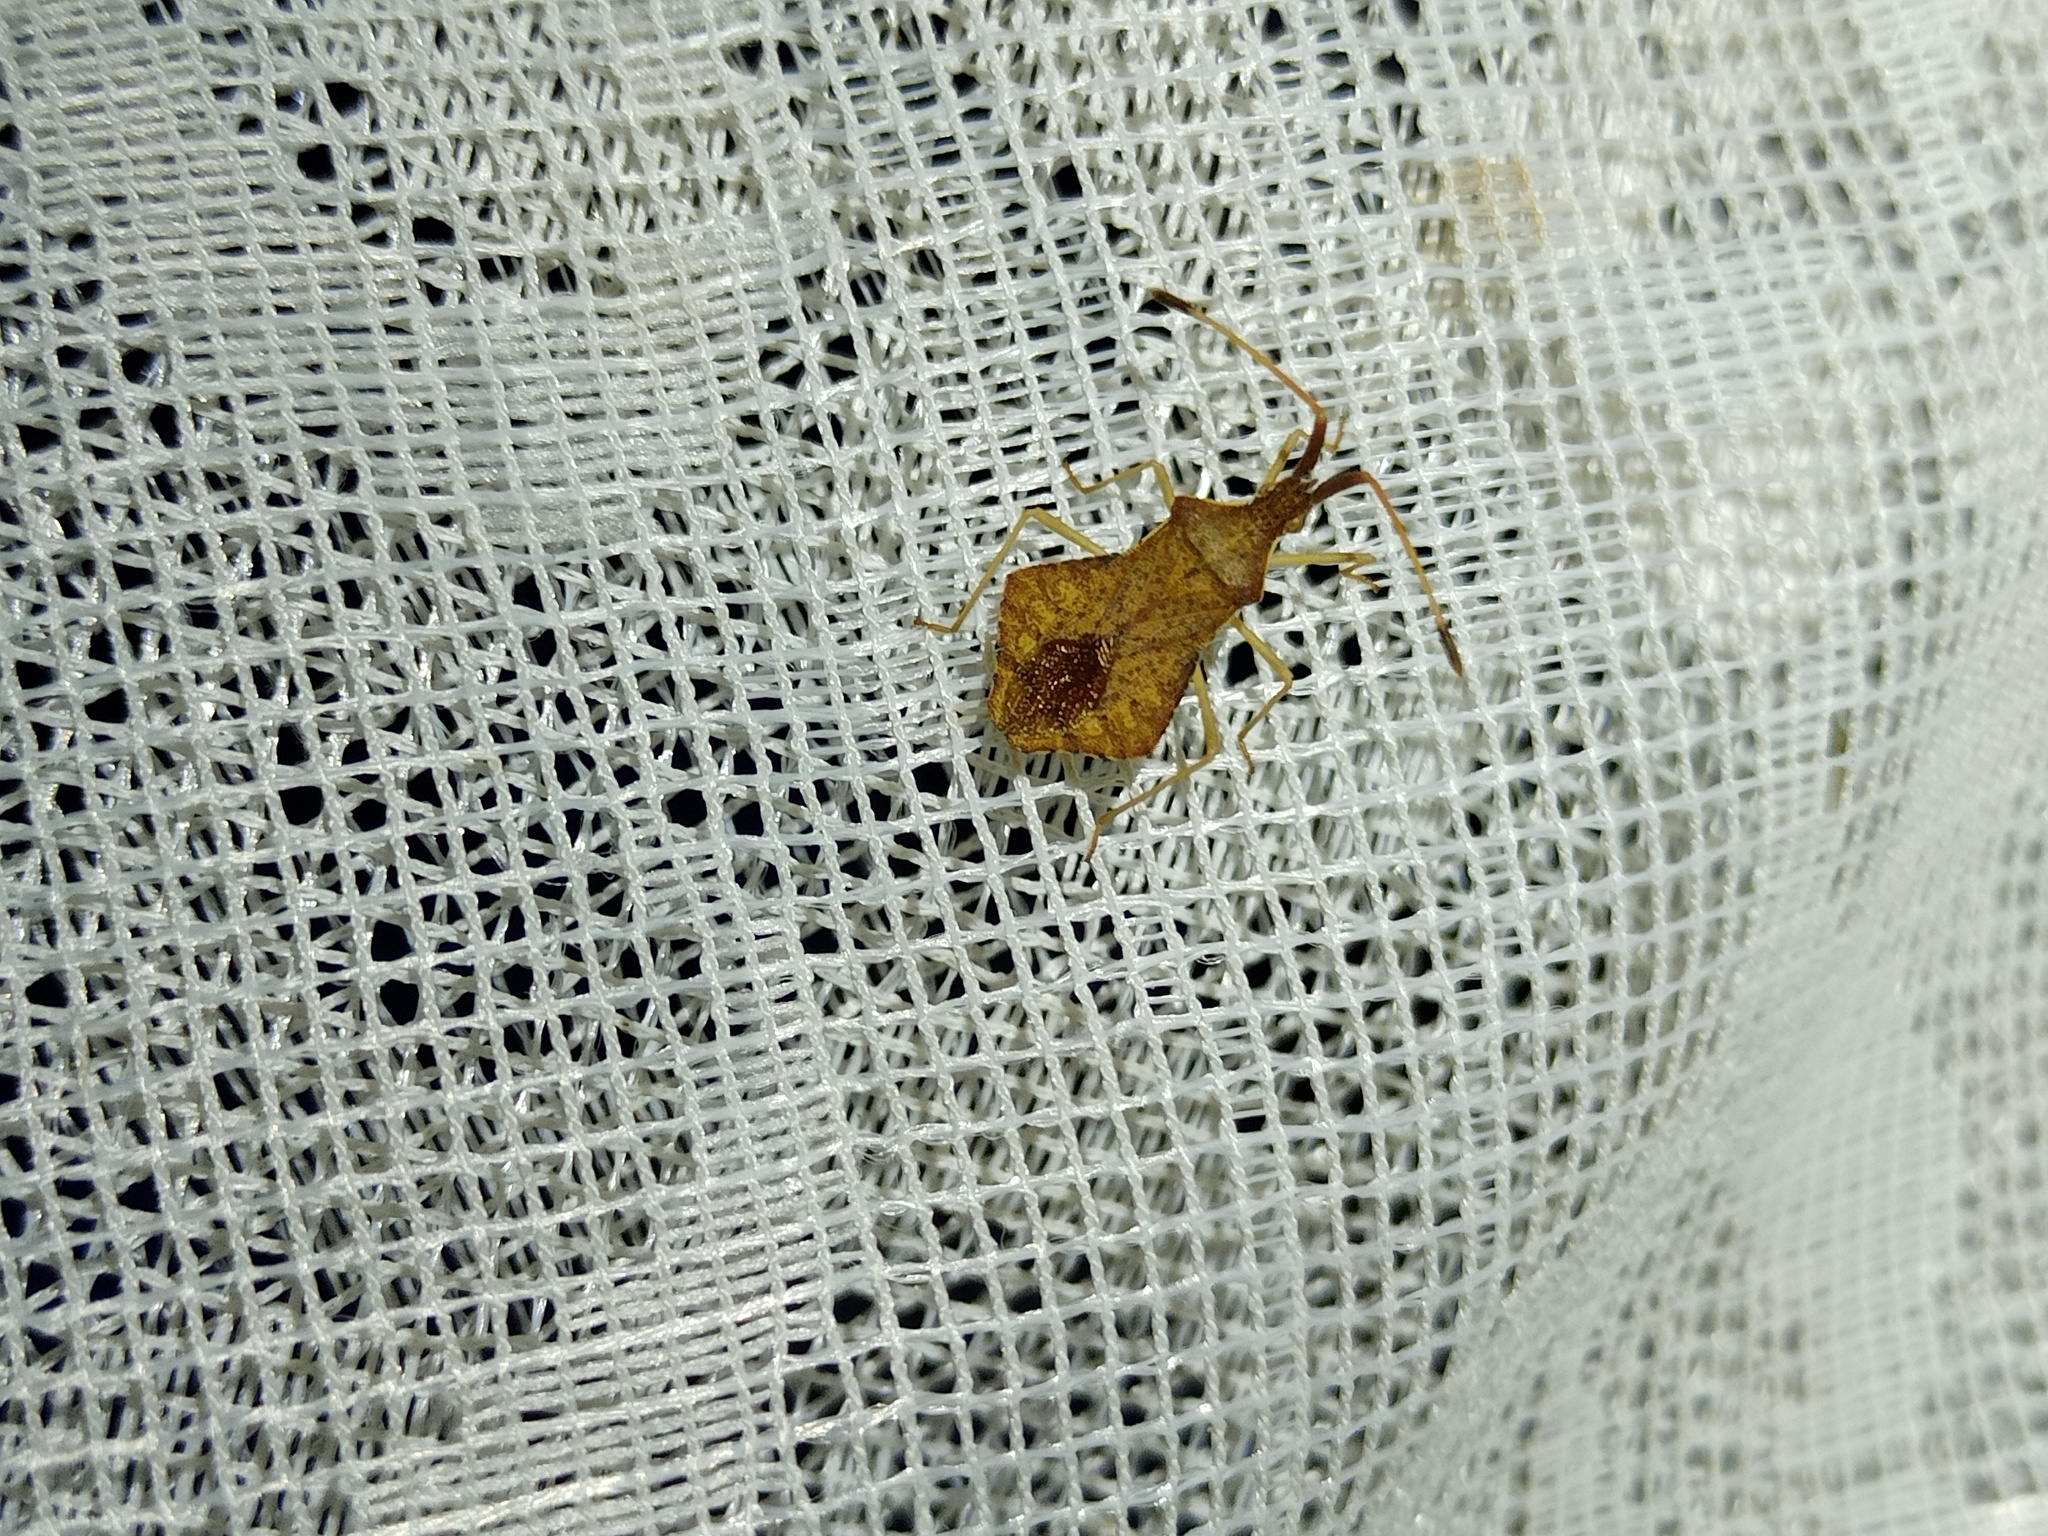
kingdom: Animalia
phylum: Arthropoda
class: Insecta
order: Hemiptera
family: Coreidae
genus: Syromastus
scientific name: Syromastus rhombeus
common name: Rhombic leatherbug
